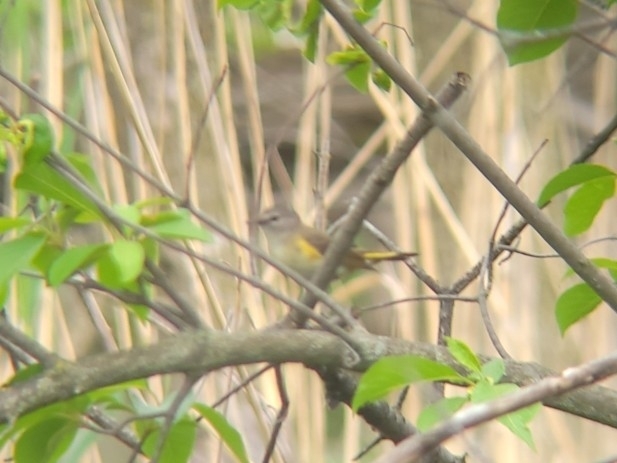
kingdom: Animalia
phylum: Chordata
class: Aves
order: Passeriformes
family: Parulidae
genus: Setophaga
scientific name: Setophaga ruticilla
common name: American redstart
